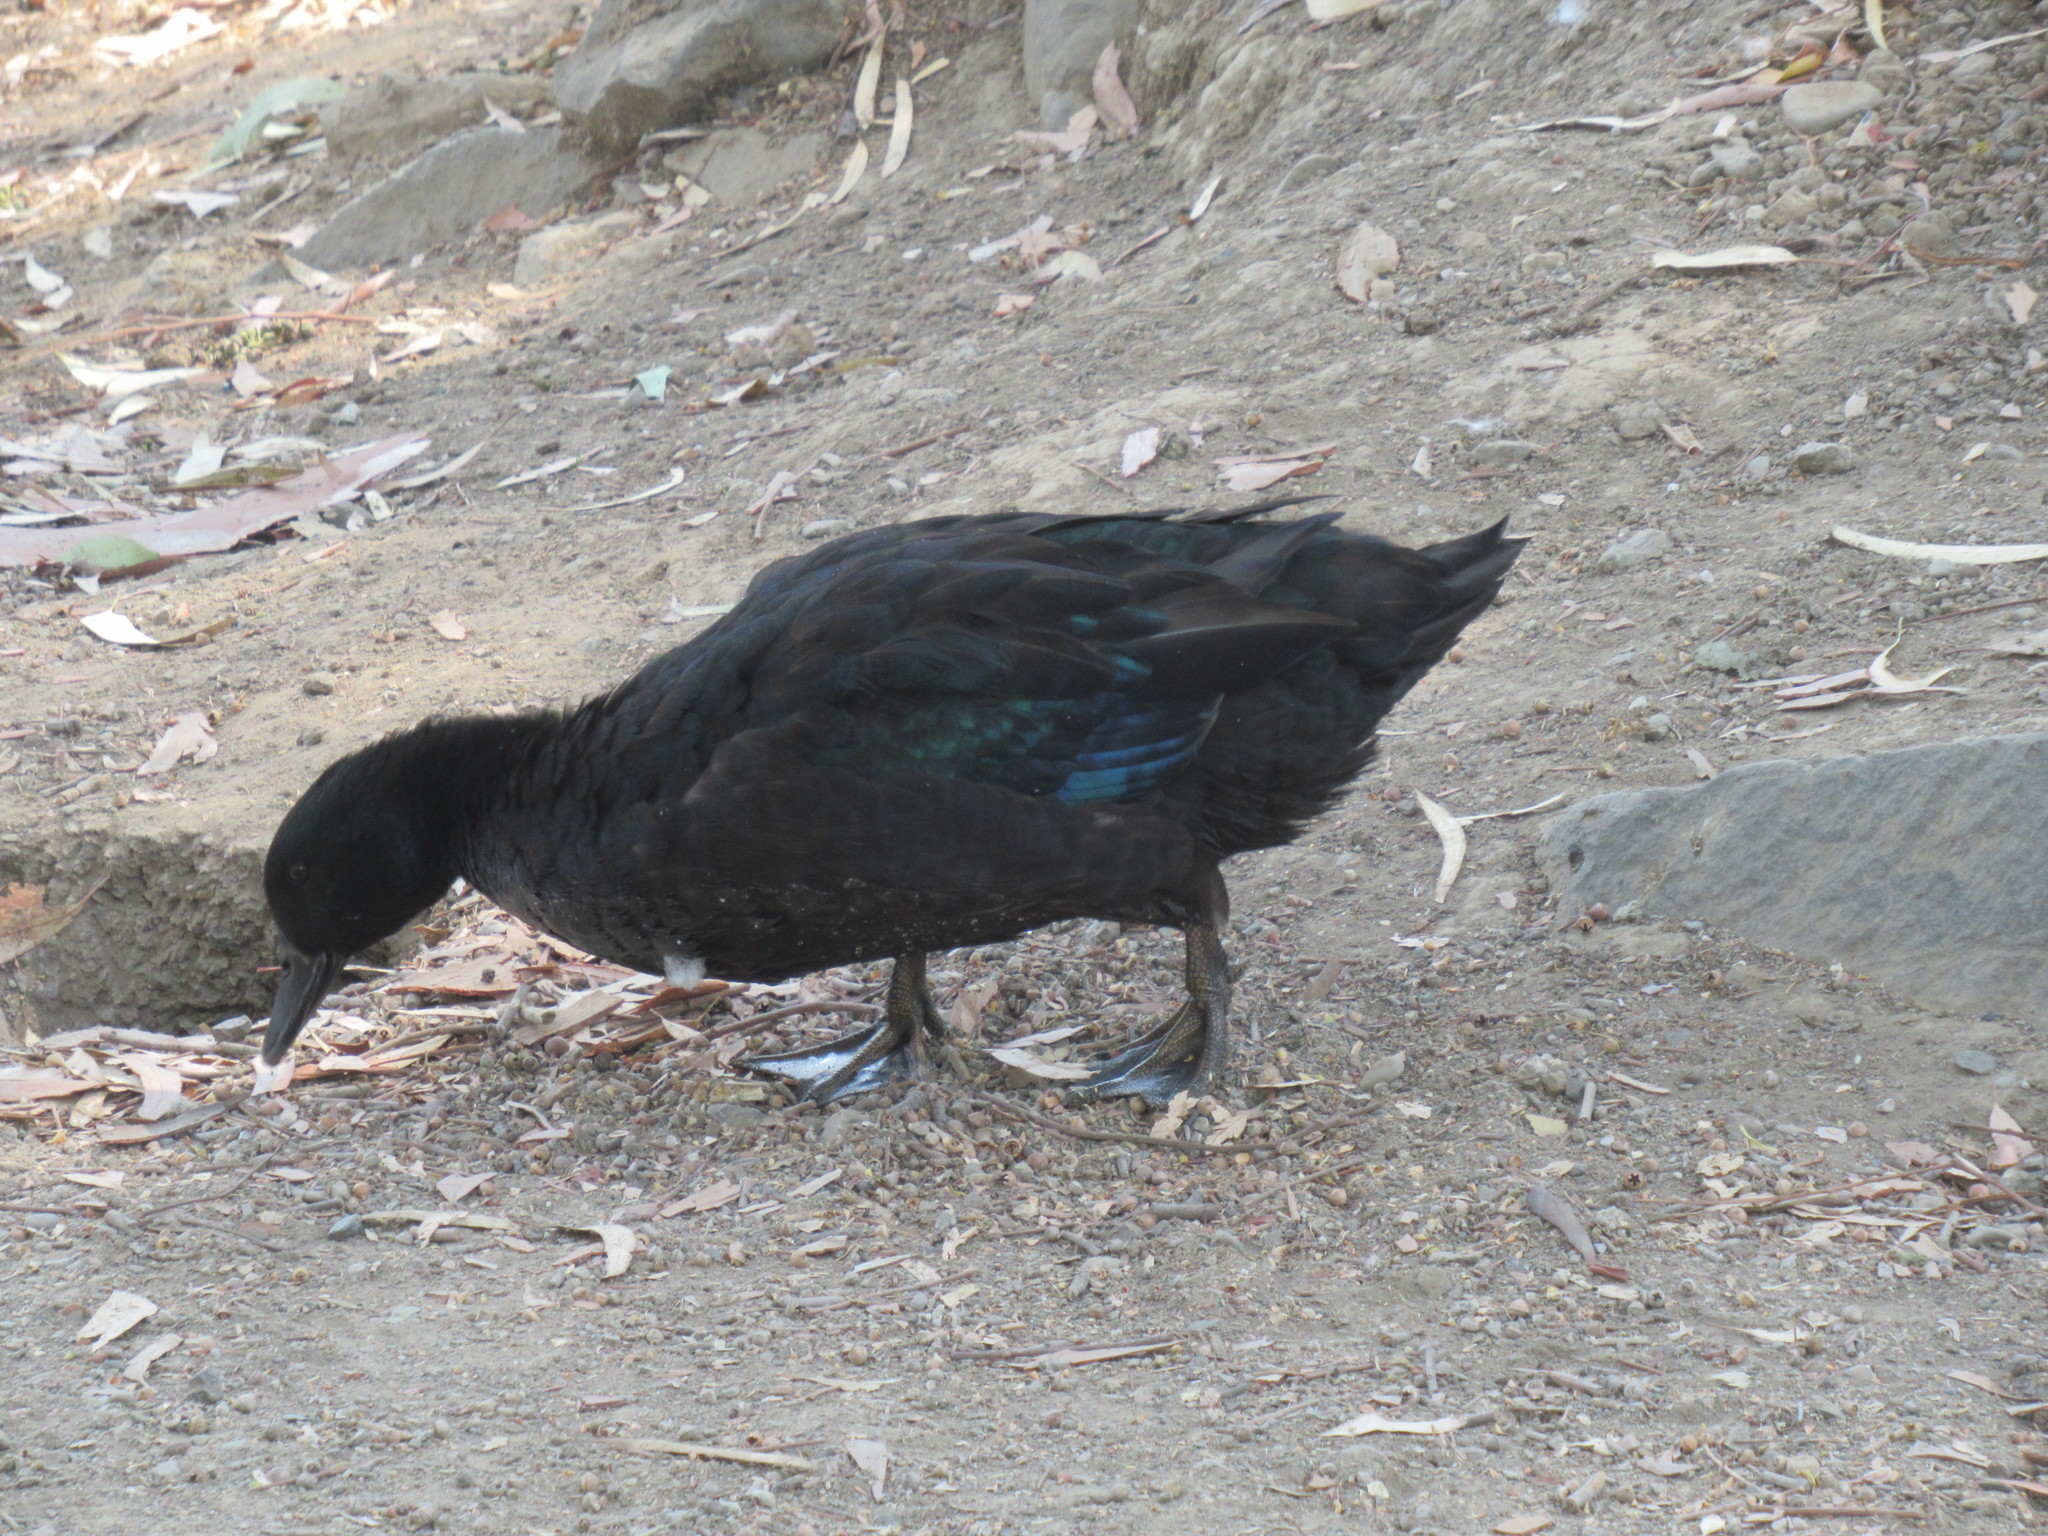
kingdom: Animalia
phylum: Chordata
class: Aves
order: Anseriformes
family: Anatidae
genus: Anas
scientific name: Anas platyrhynchos
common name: Mallard
